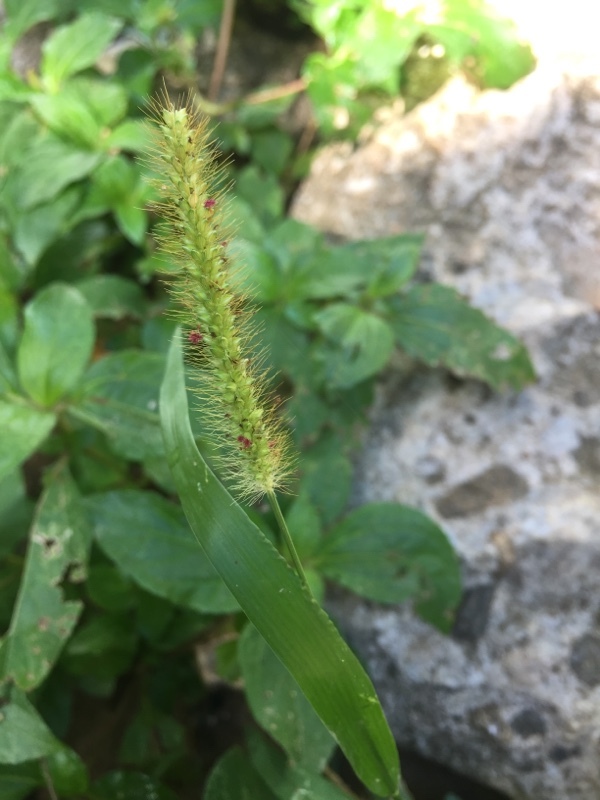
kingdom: Plantae
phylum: Tracheophyta
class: Liliopsida
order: Poales
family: Poaceae
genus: Setaria
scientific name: Setaria parviflora
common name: Knotroot bristle-grass
